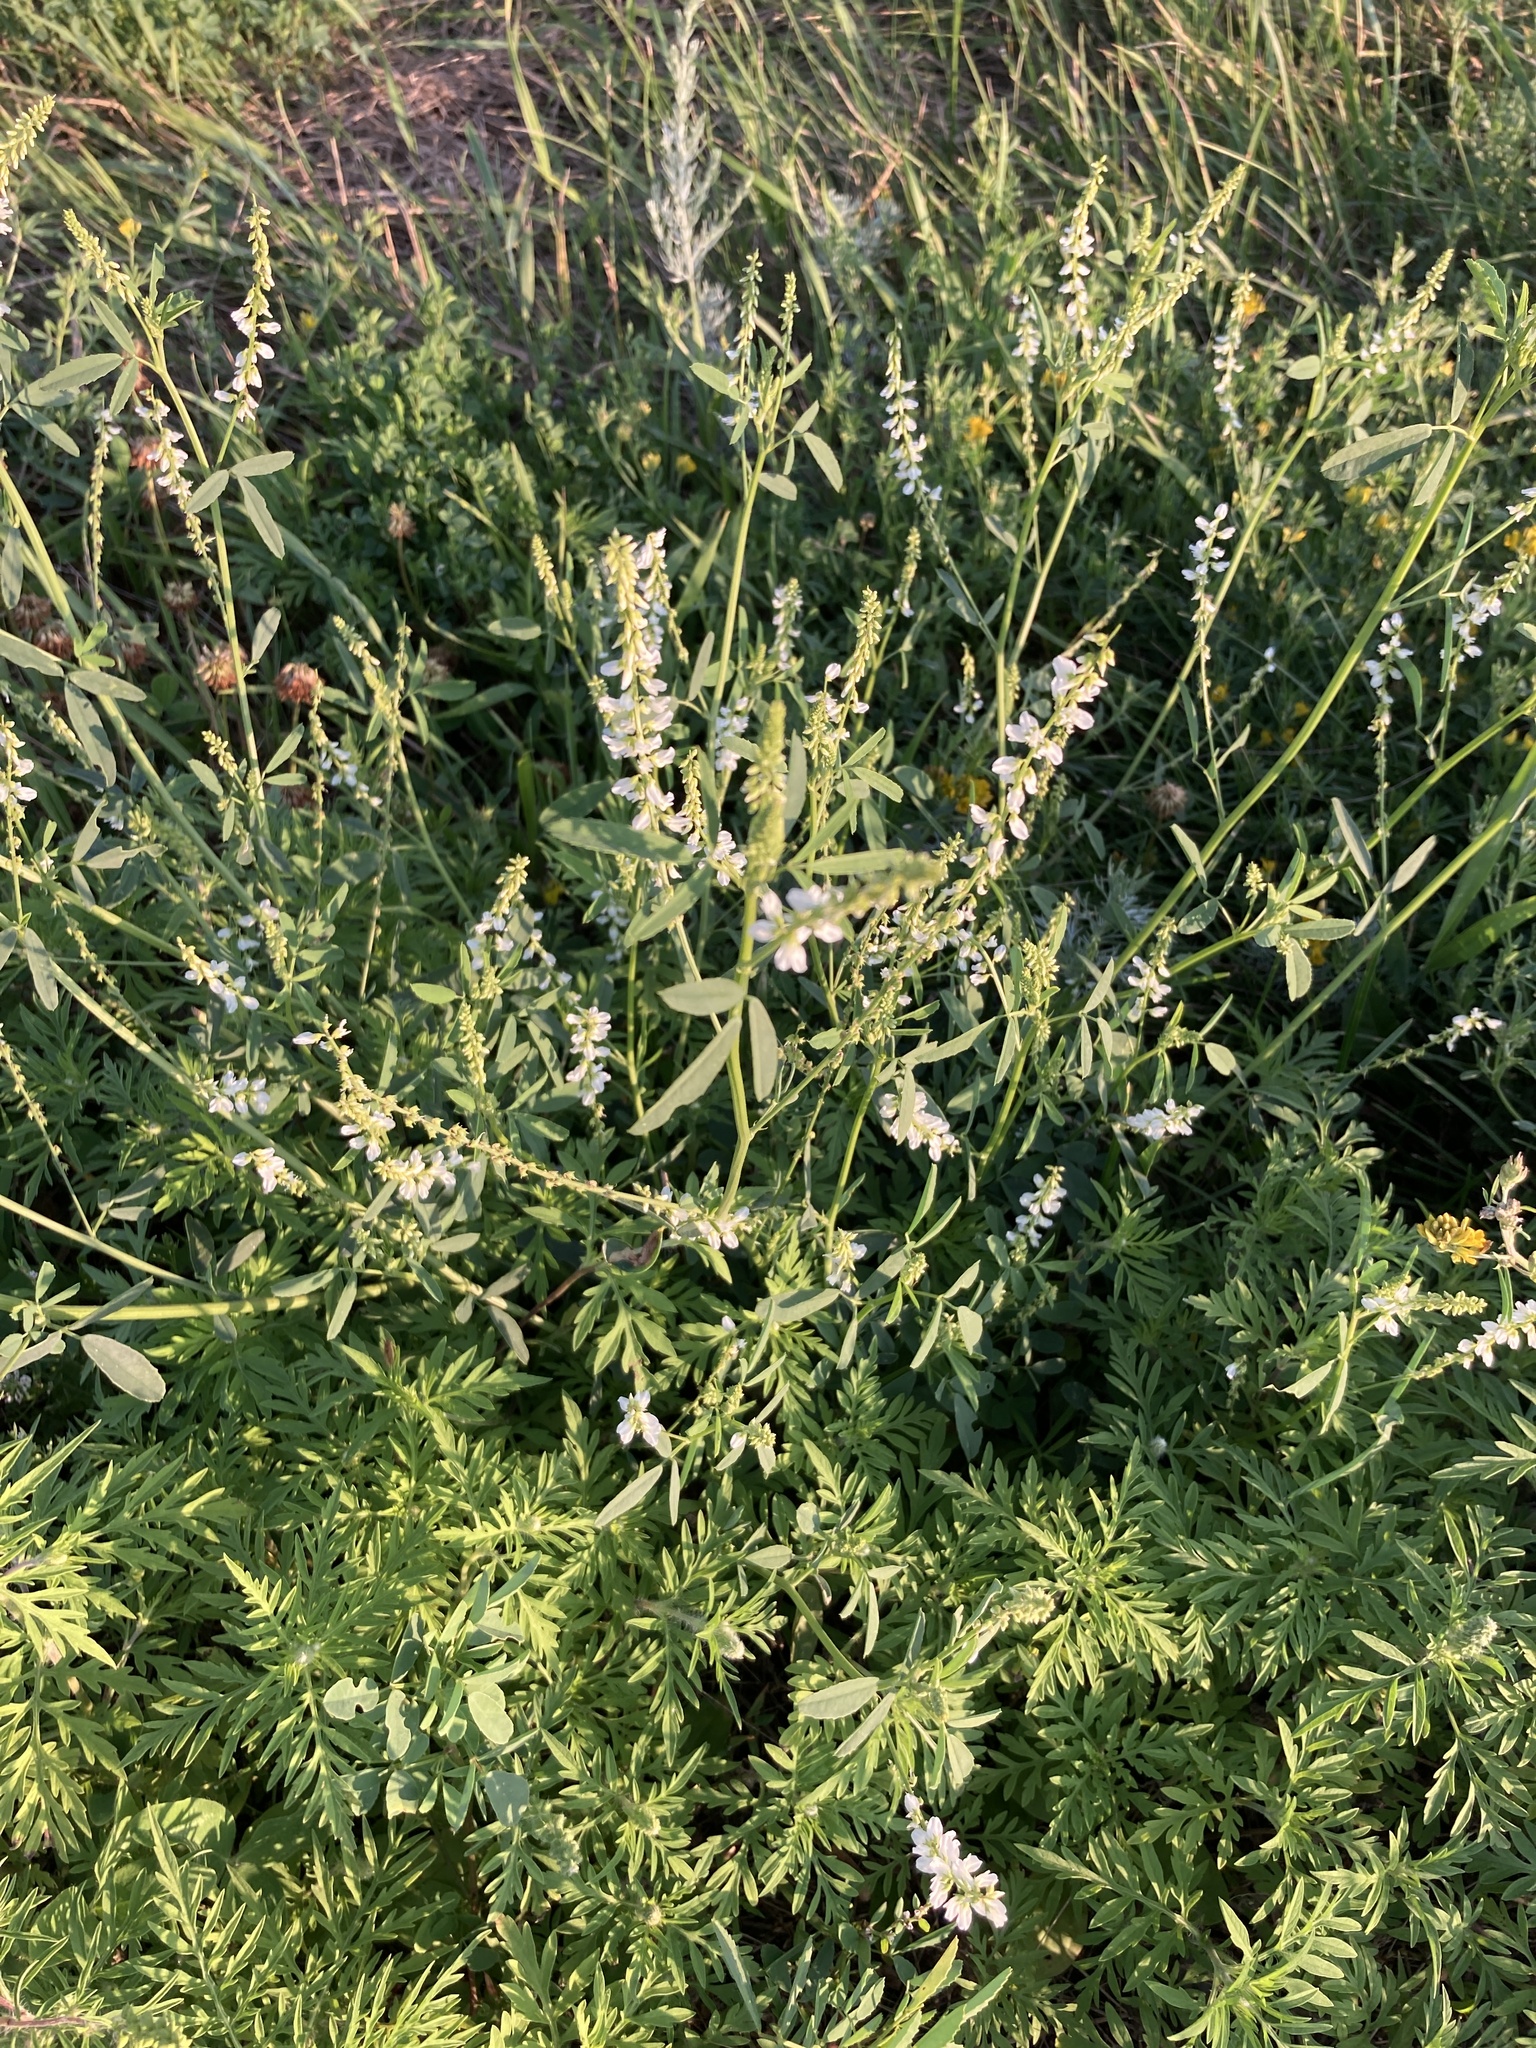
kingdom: Plantae
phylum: Tracheophyta
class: Magnoliopsida
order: Fabales
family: Fabaceae
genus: Melilotus
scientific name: Melilotus albus
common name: White melilot
